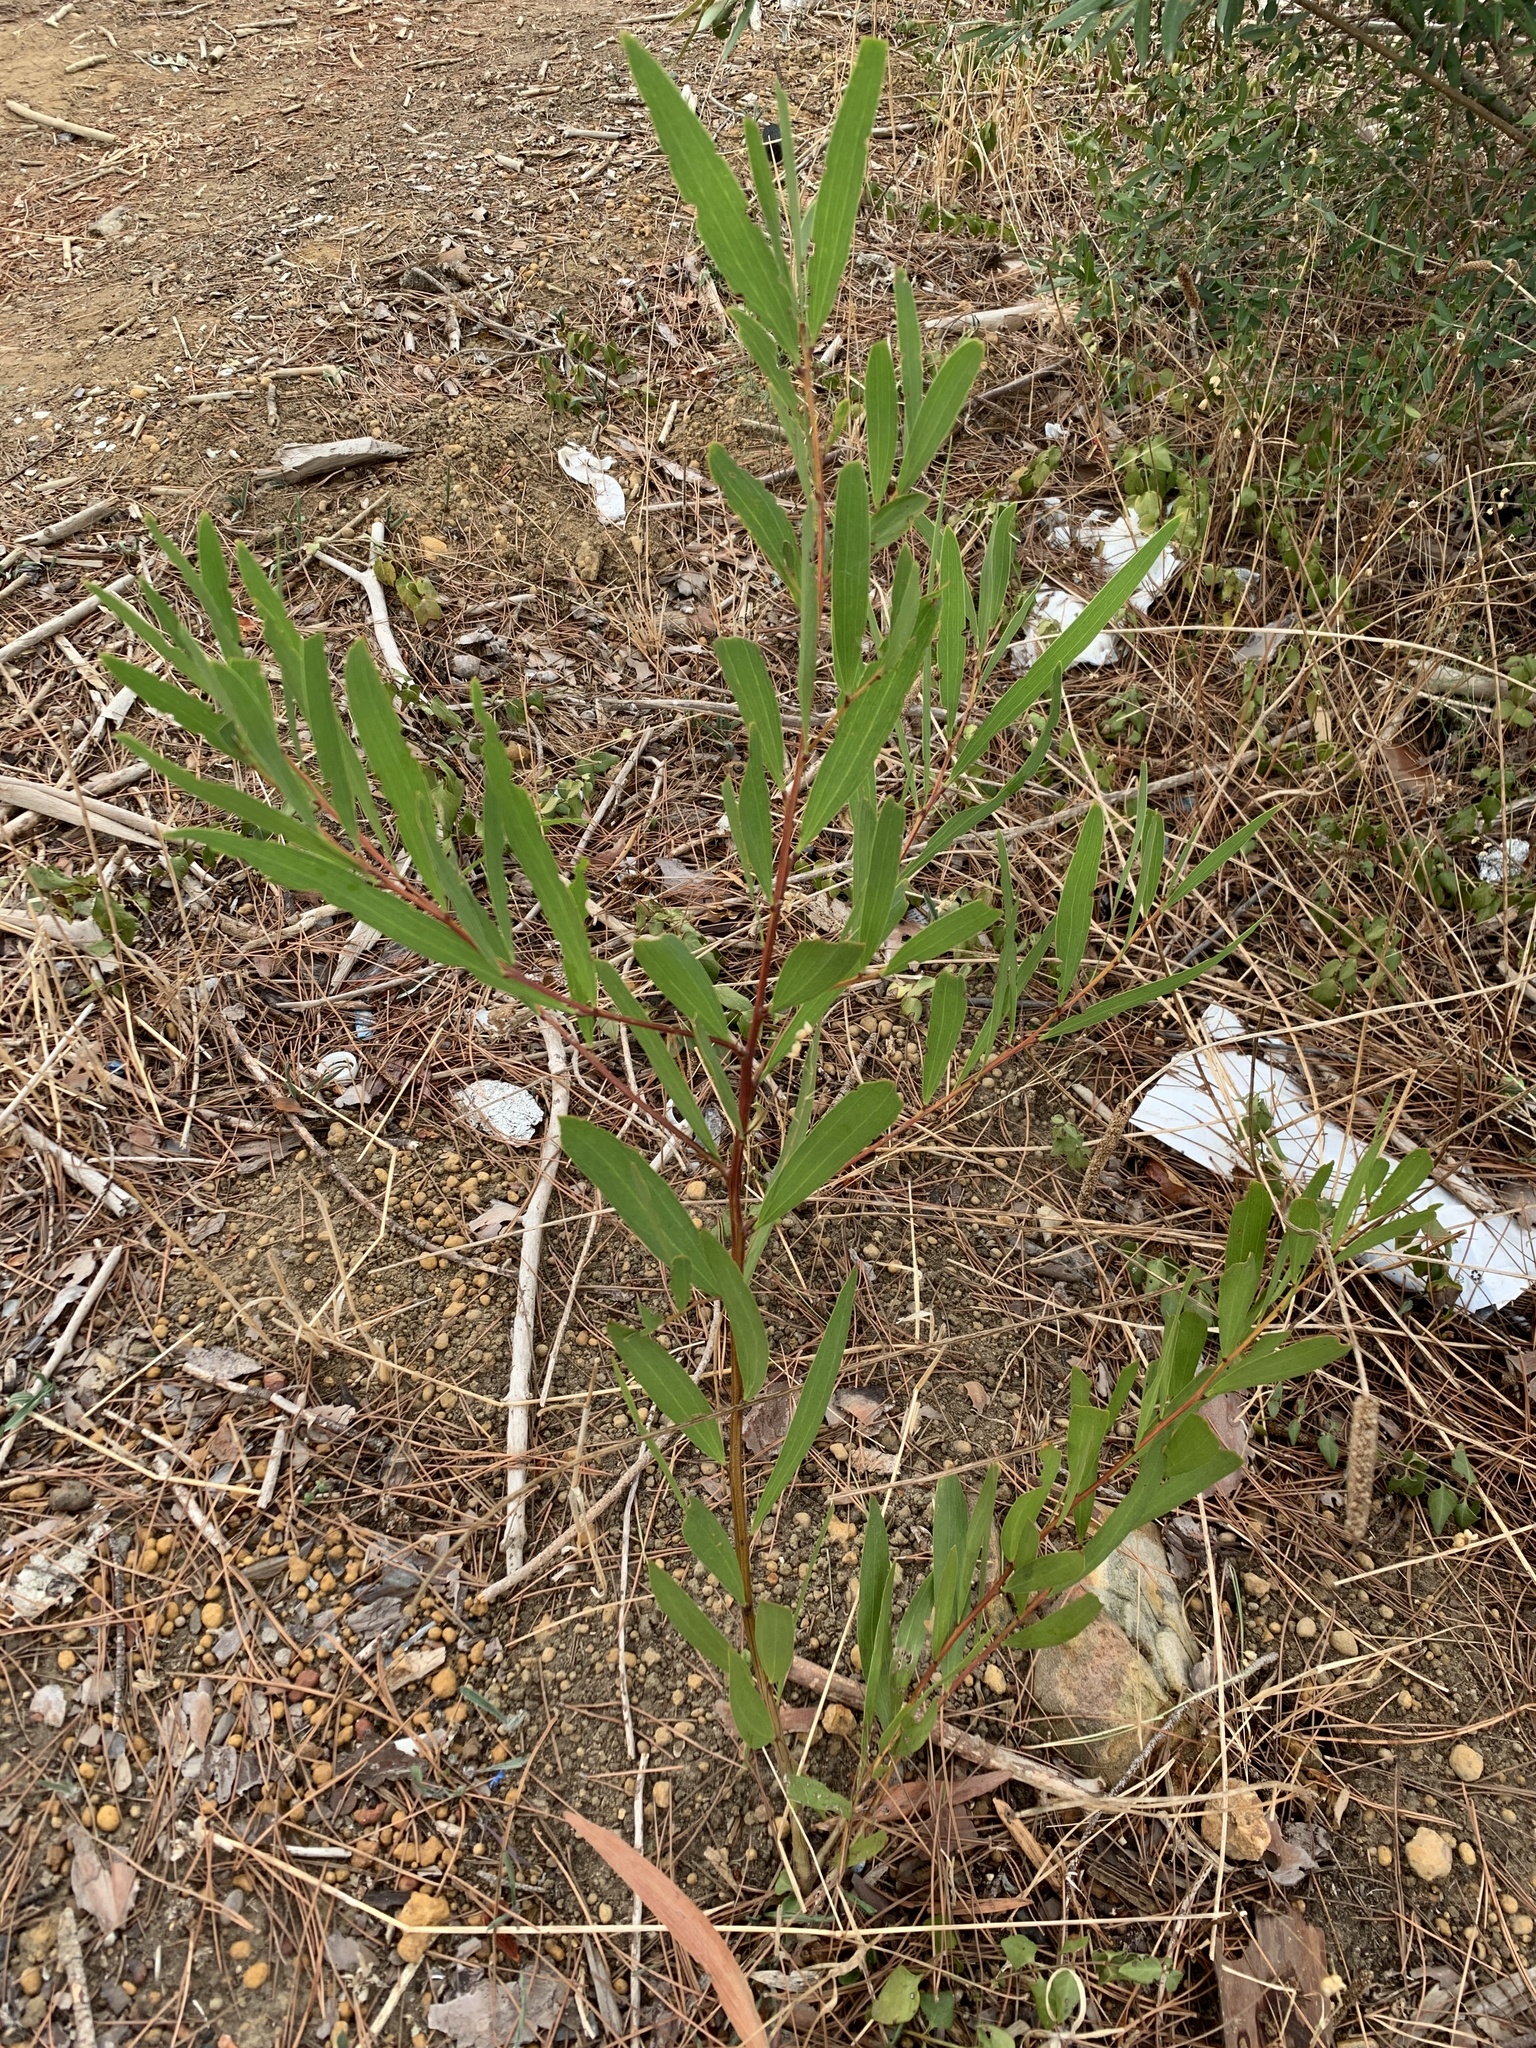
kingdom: Plantae
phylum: Tracheophyta
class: Magnoliopsida
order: Fabales
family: Fabaceae
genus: Acacia
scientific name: Acacia longifolia
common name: Sydney golden wattle
